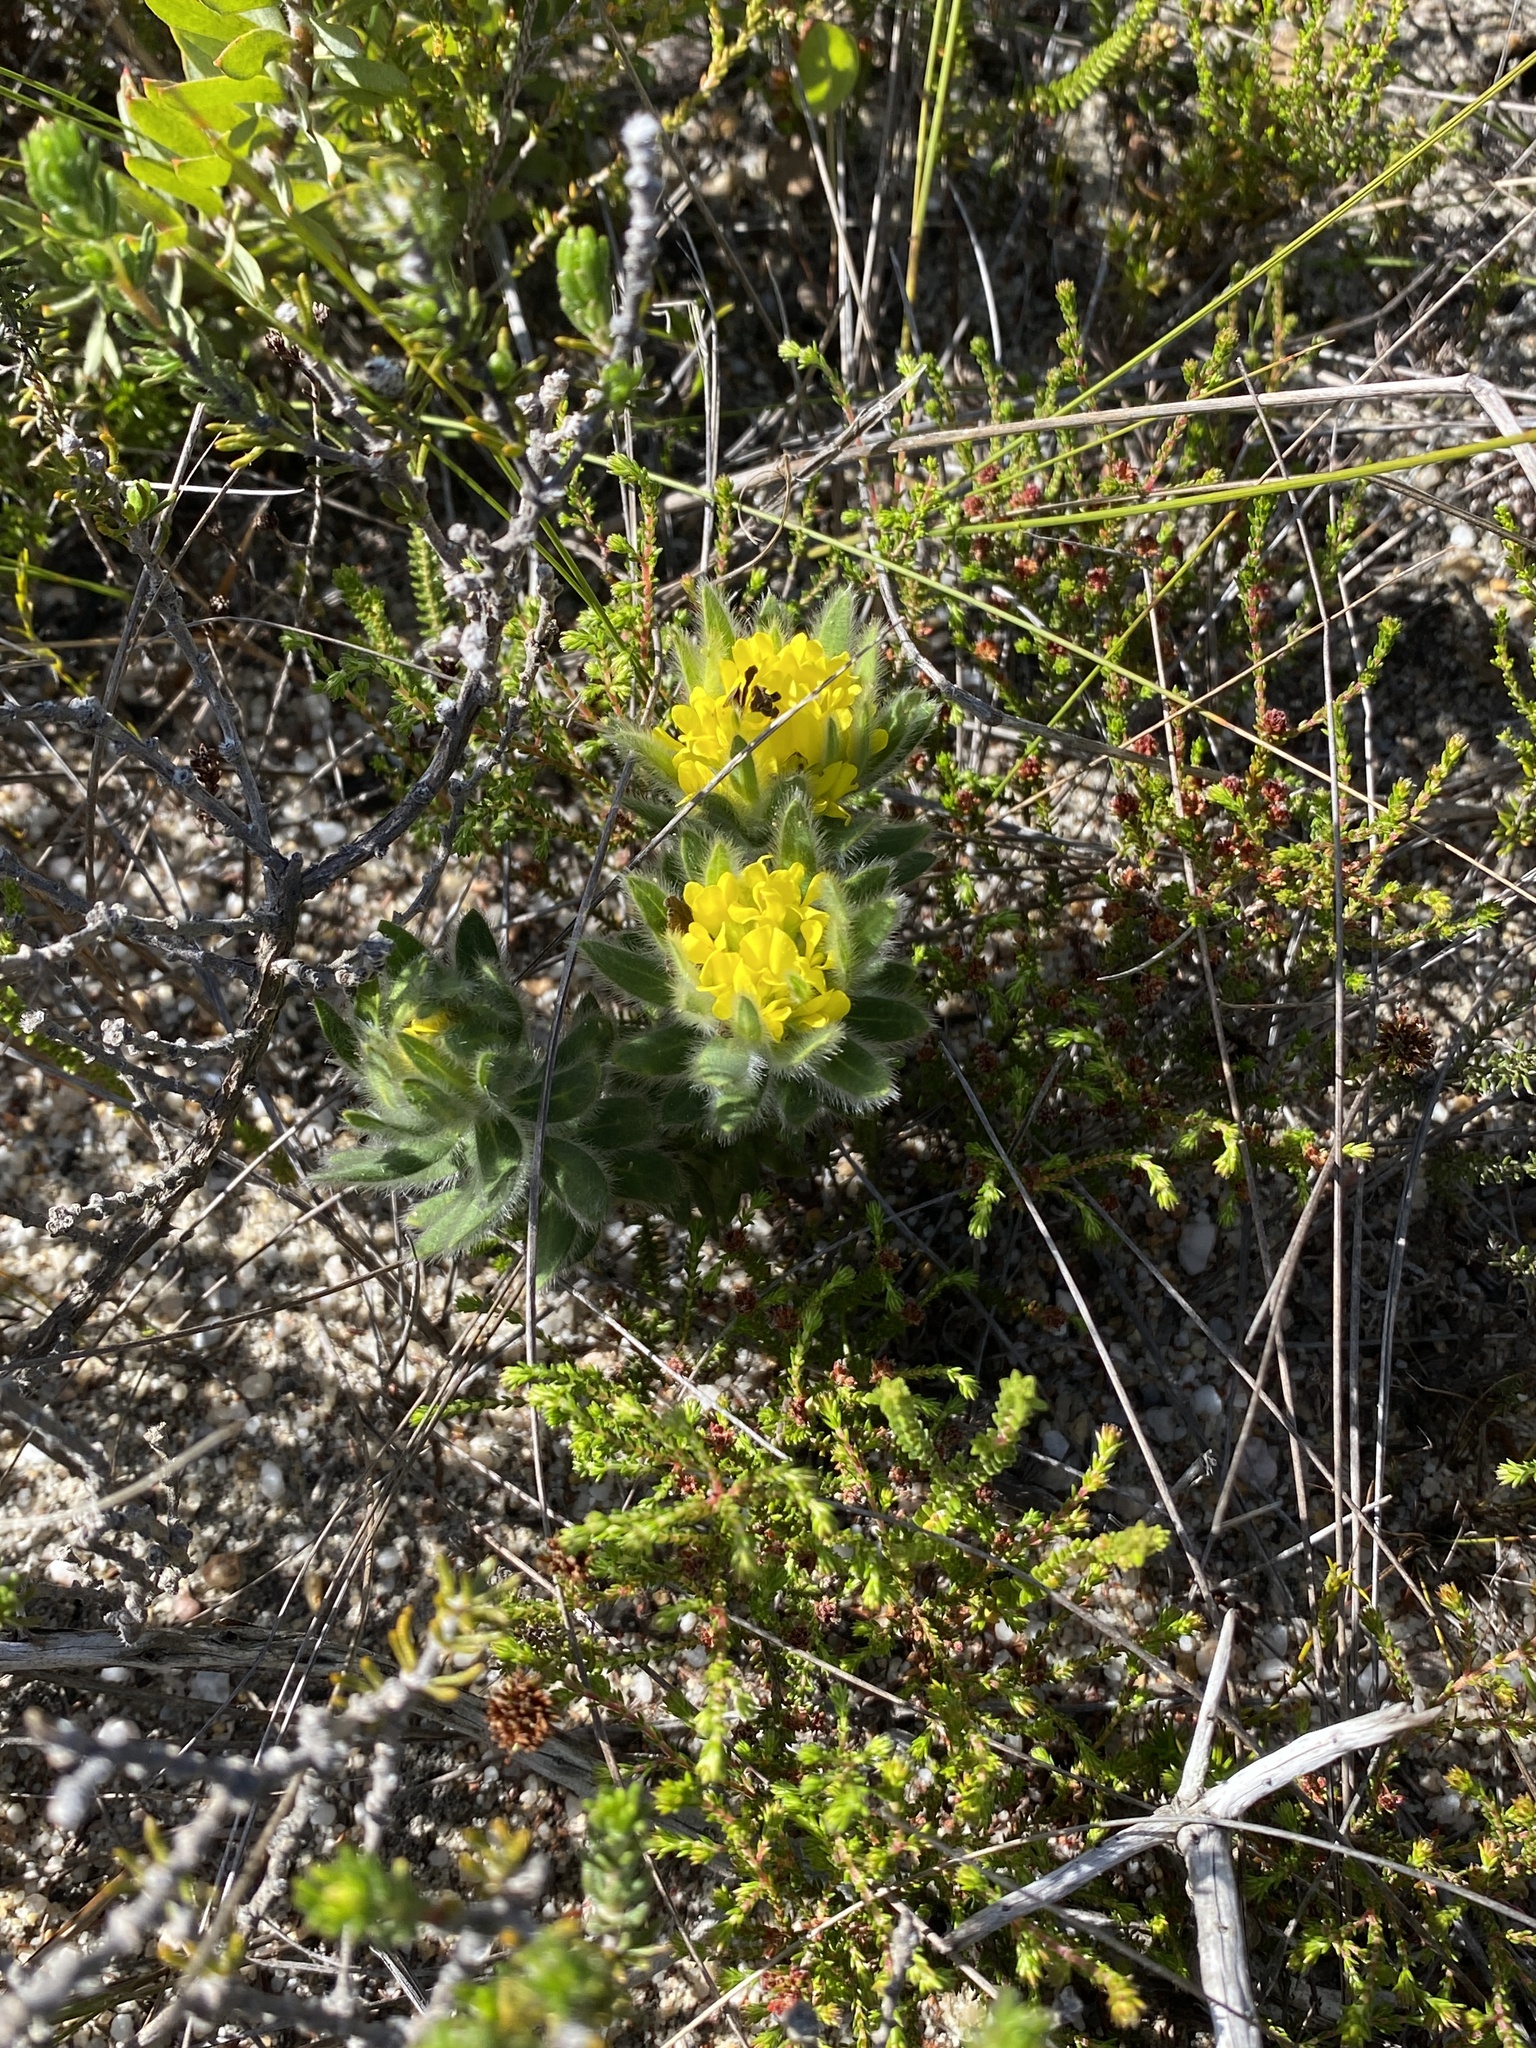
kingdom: Plantae
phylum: Tracheophyta
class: Magnoliopsida
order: Fabales
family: Fabaceae
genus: Xiphotheca
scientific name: Xiphotheca guthriei
